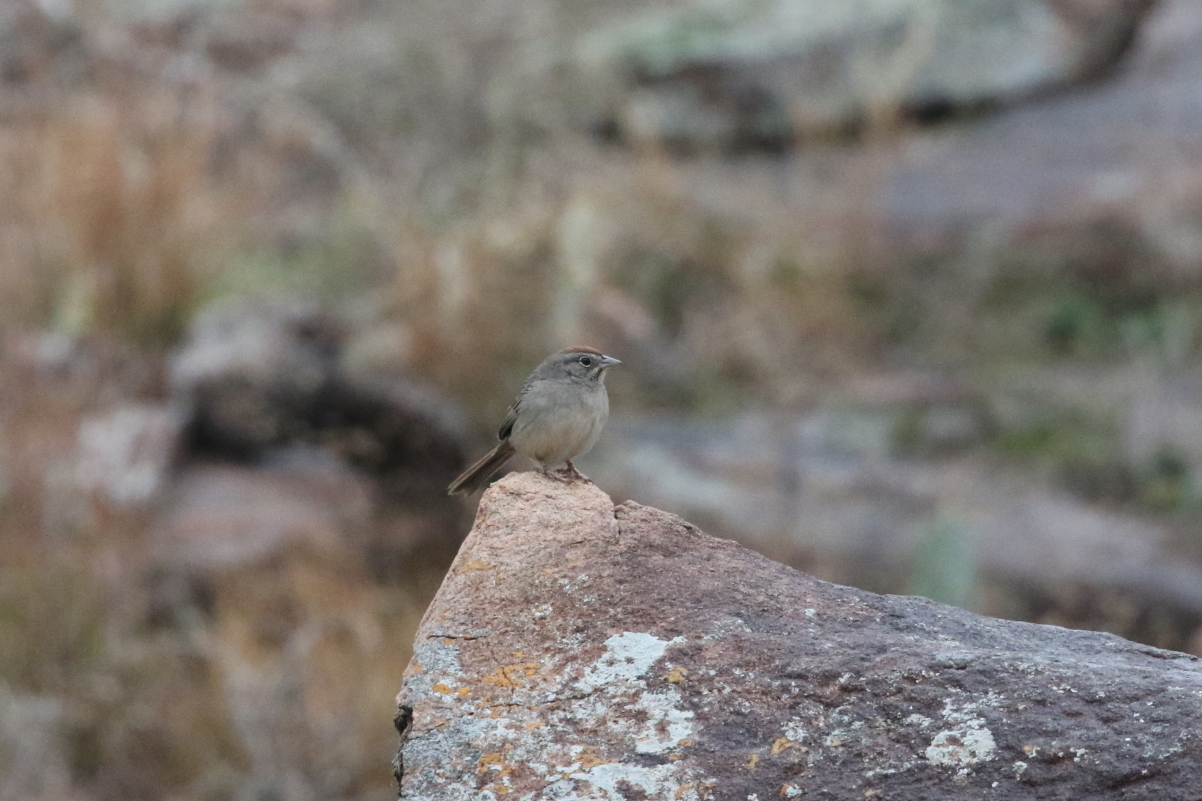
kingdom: Animalia
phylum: Chordata
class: Aves
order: Passeriformes
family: Passerellidae
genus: Aimophila
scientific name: Aimophila ruficeps
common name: Rufous-crowned sparrow
